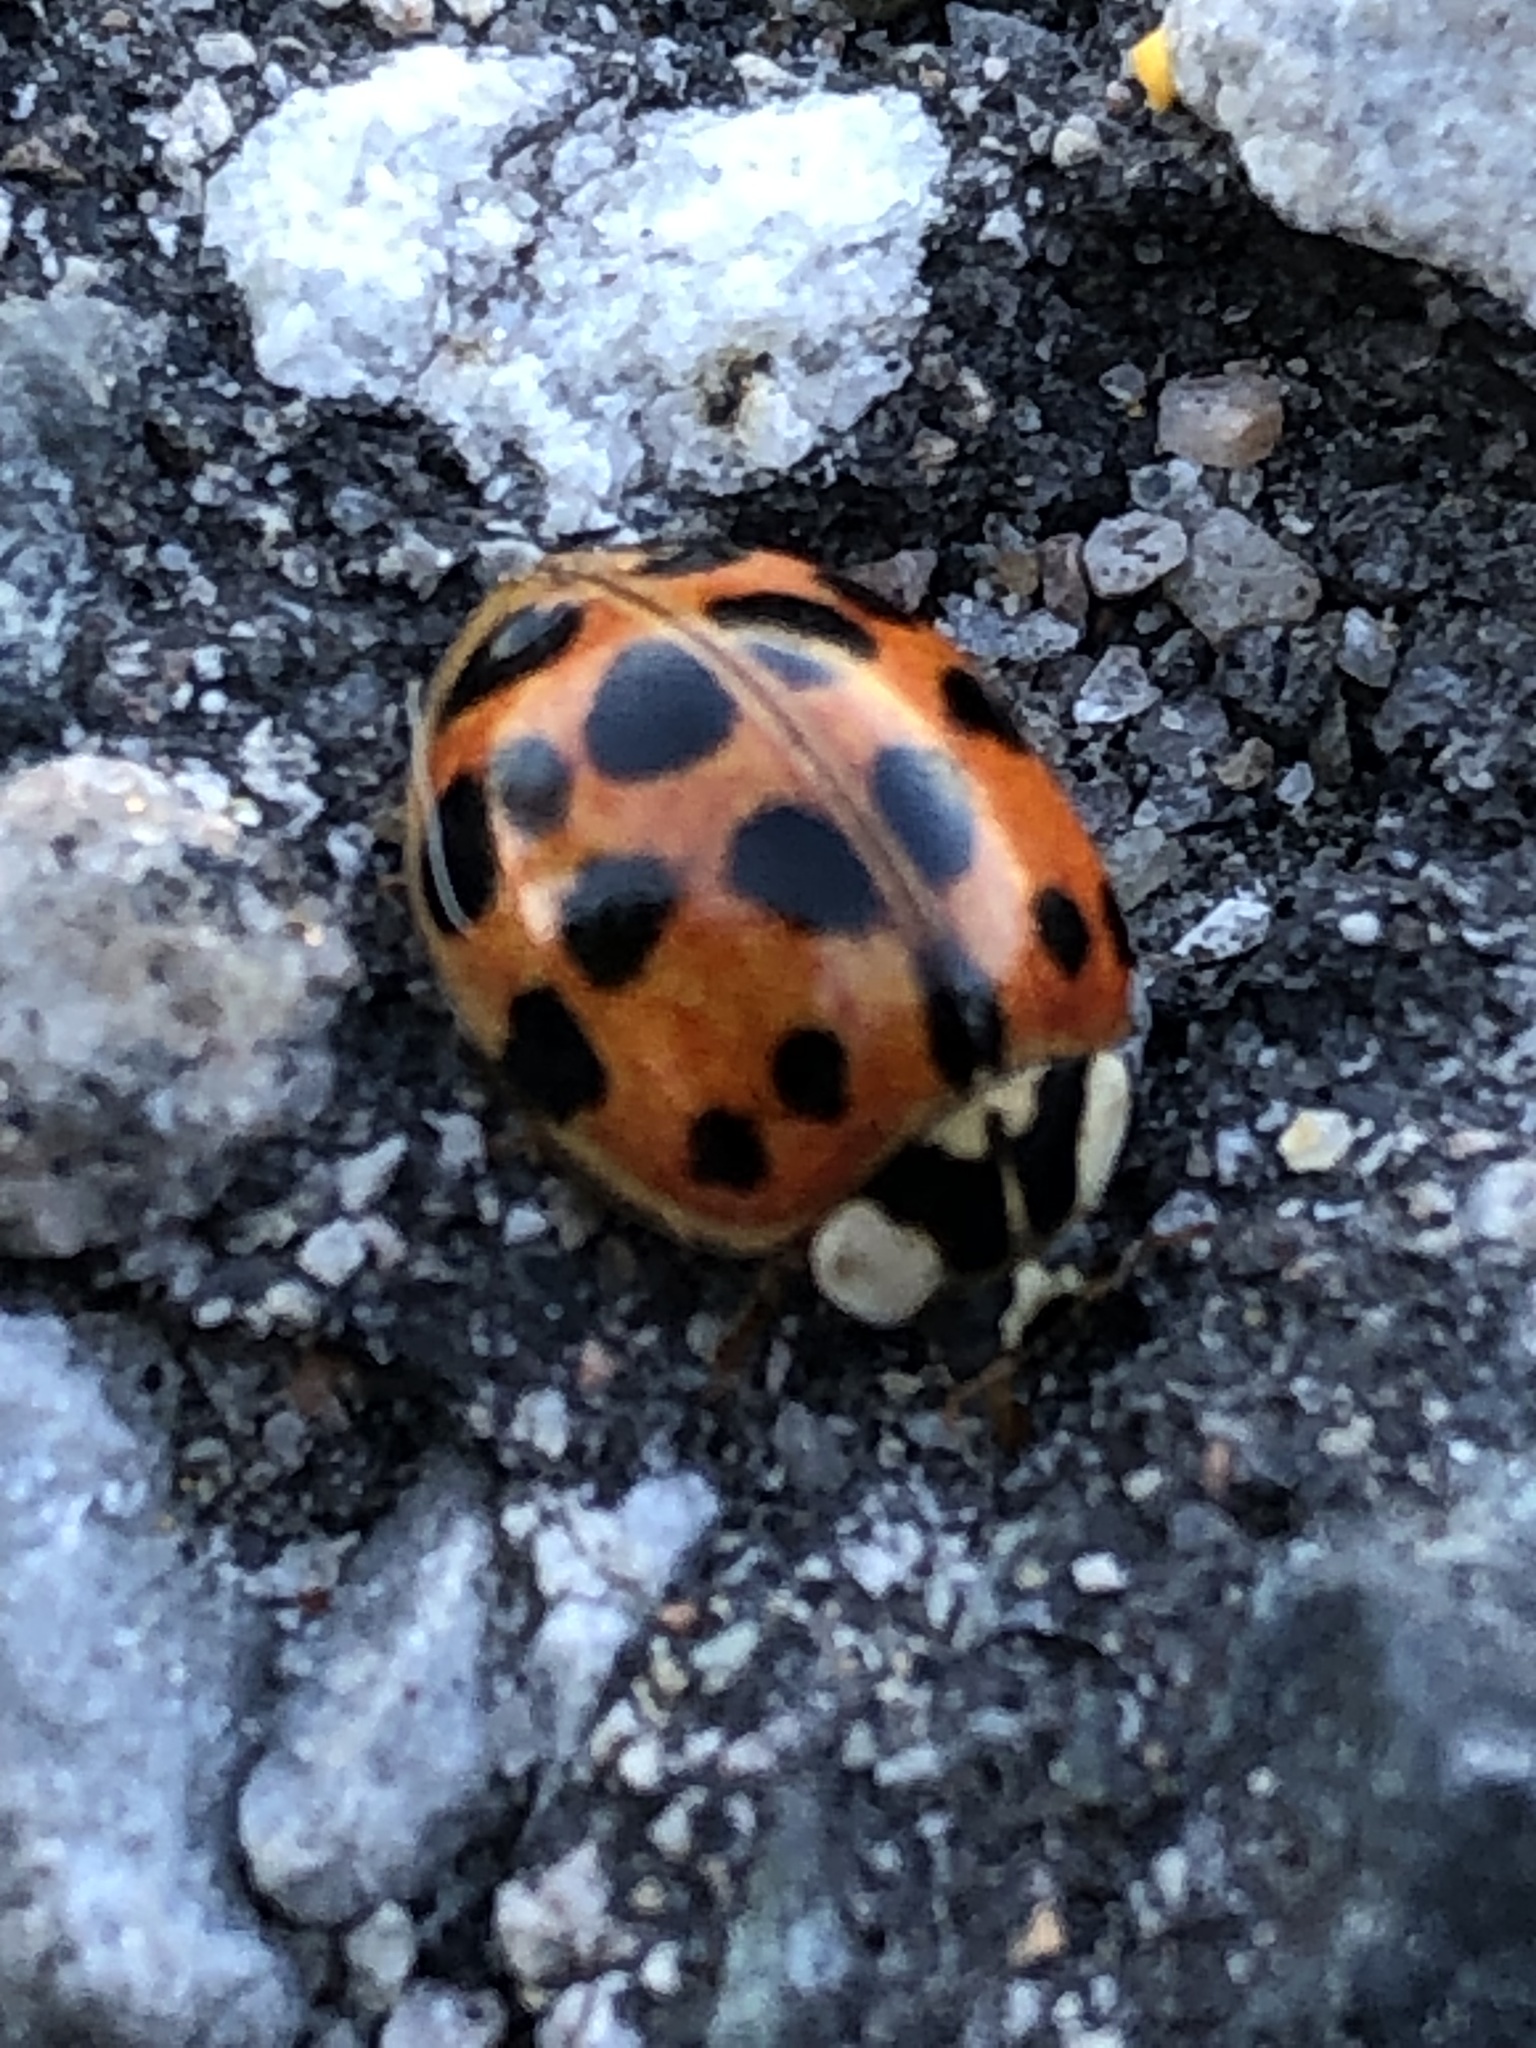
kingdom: Animalia
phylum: Arthropoda
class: Insecta
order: Coleoptera
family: Coccinellidae
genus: Harmonia
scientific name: Harmonia axyridis
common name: Harlequin ladybird
